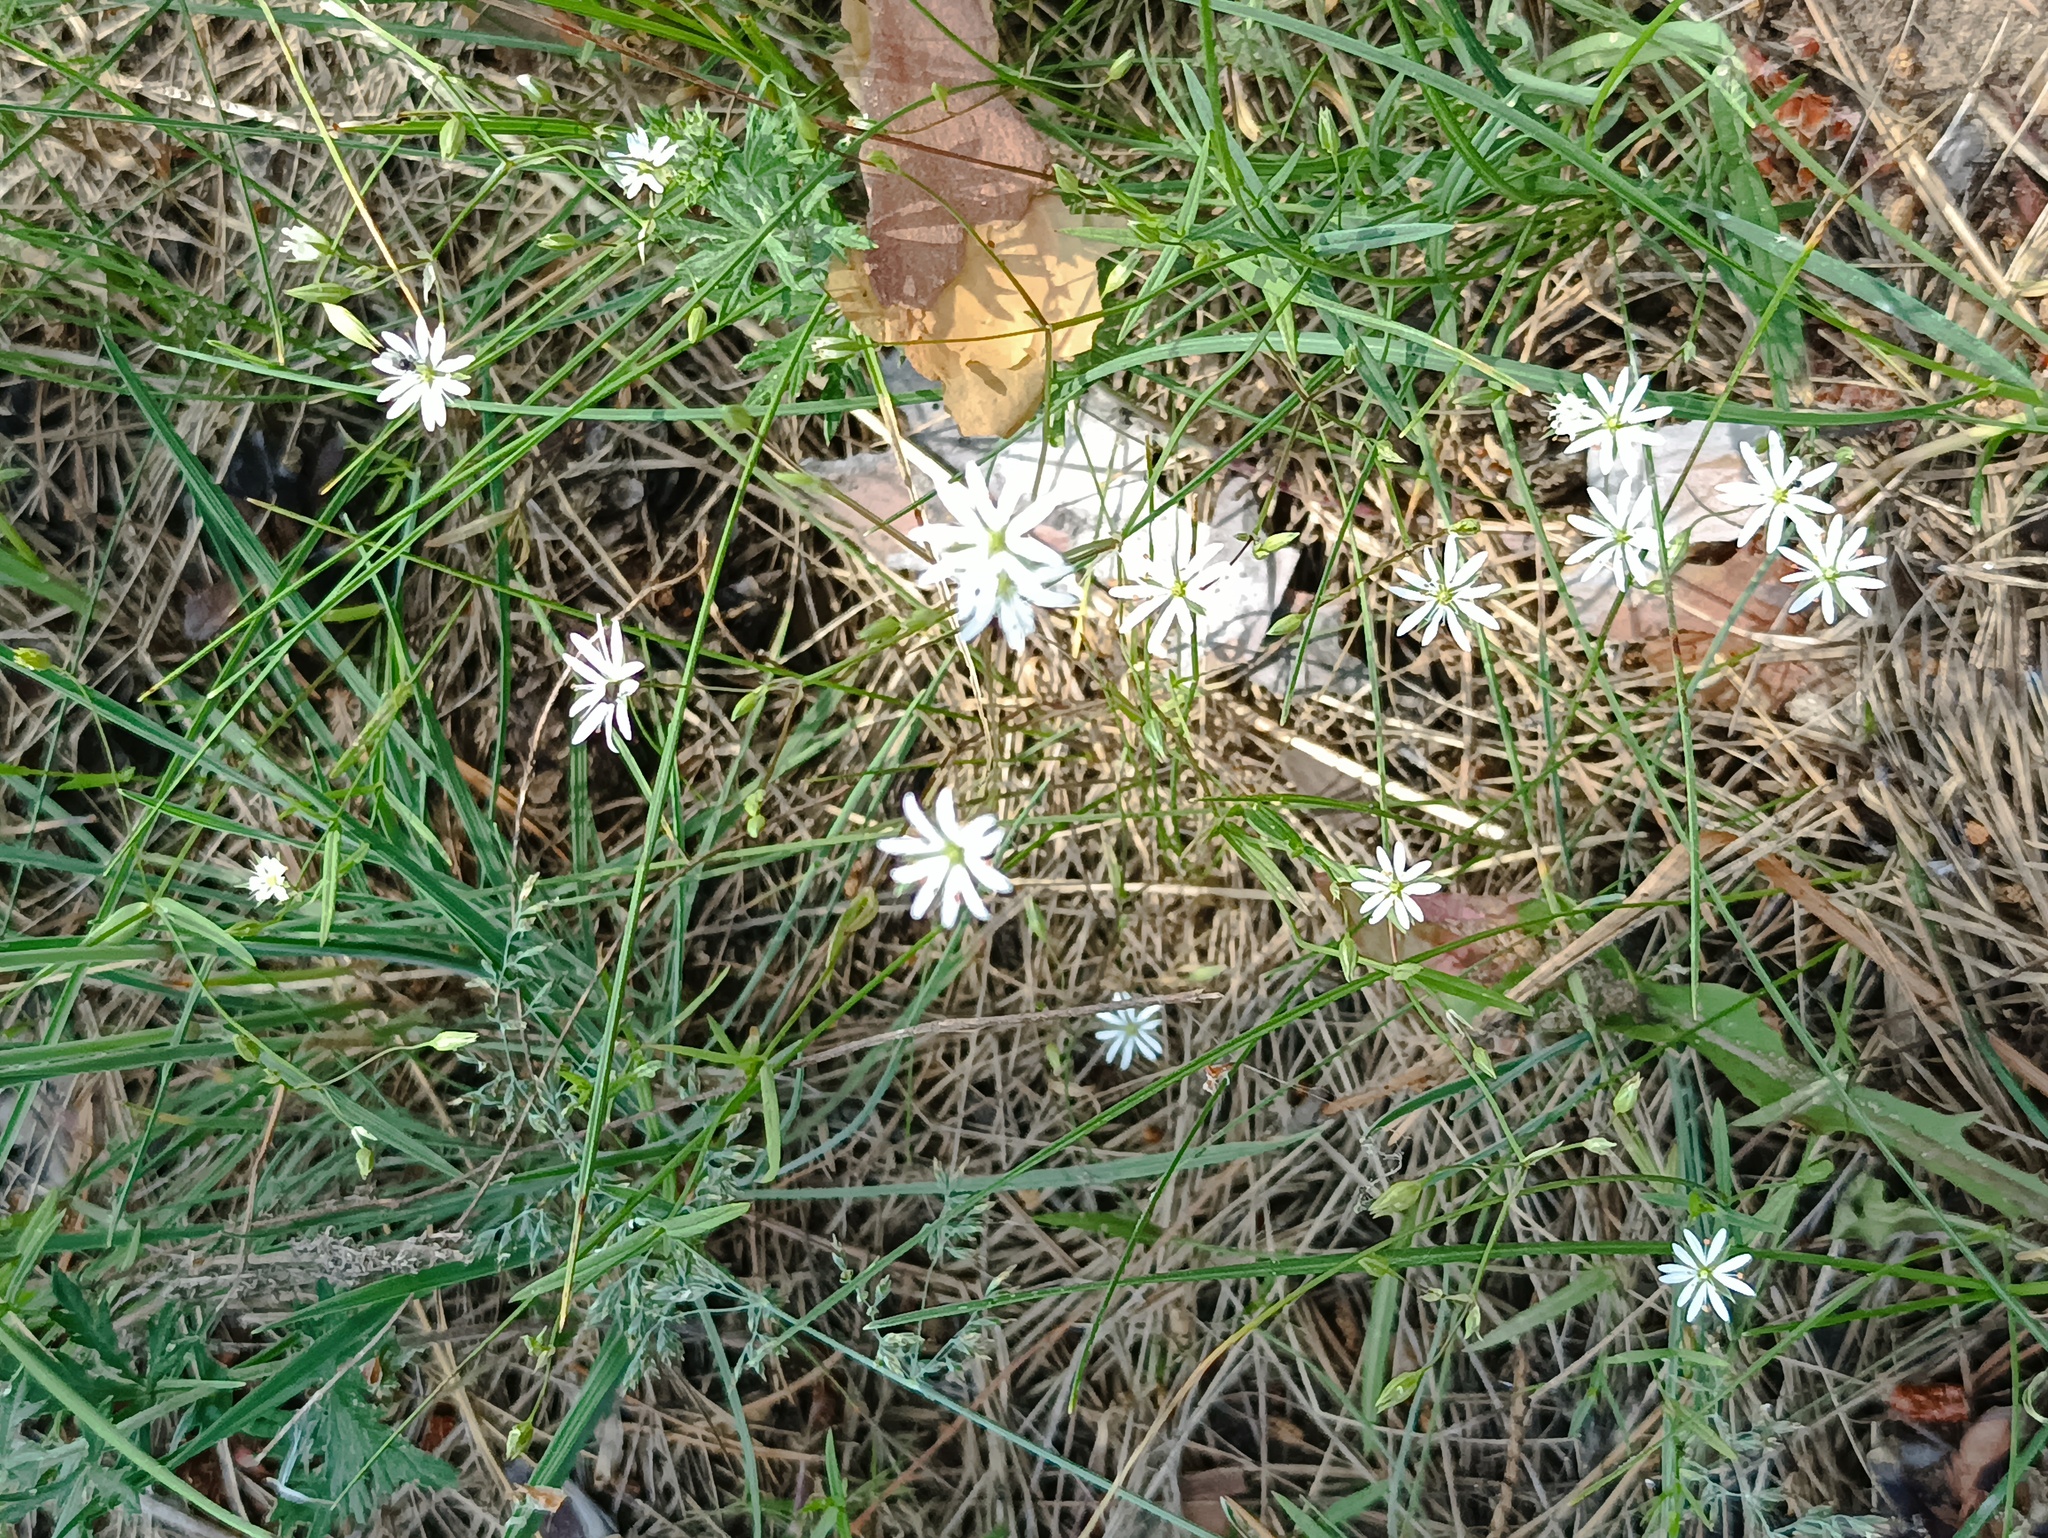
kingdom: Plantae
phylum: Tracheophyta
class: Magnoliopsida
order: Caryophyllales
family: Caryophyllaceae
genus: Stellaria
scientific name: Stellaria graminea
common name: Grass-like starwort
